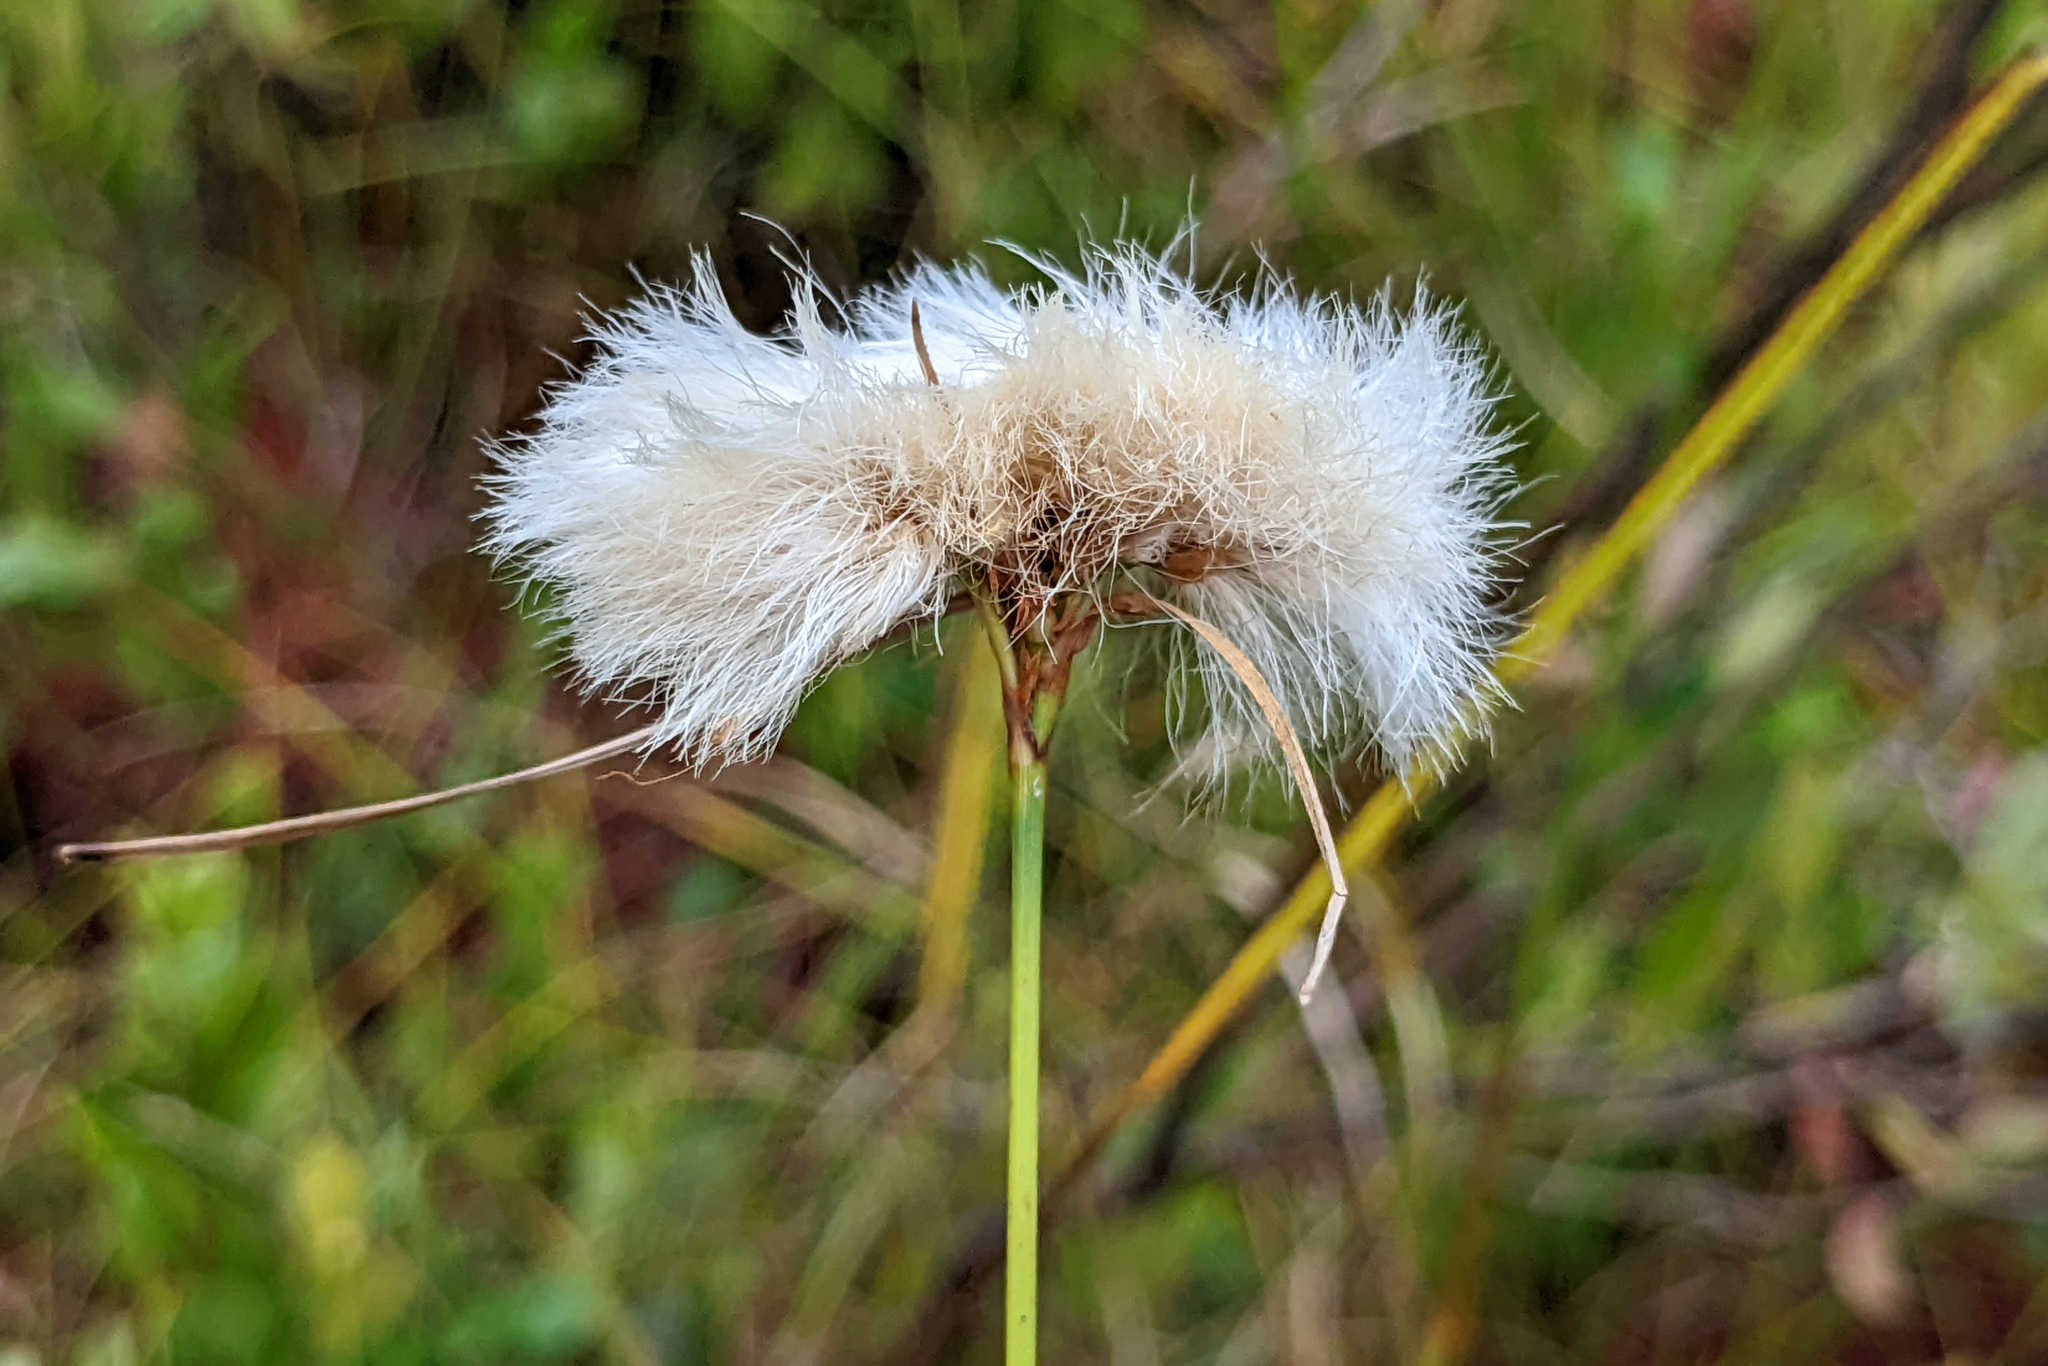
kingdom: Plantae
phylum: Tracheophyta
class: Liliopsida
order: Poales
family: Cyperaceae
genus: Eriophorum
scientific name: Eriophorum virginicum
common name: Tawny cottongrass
